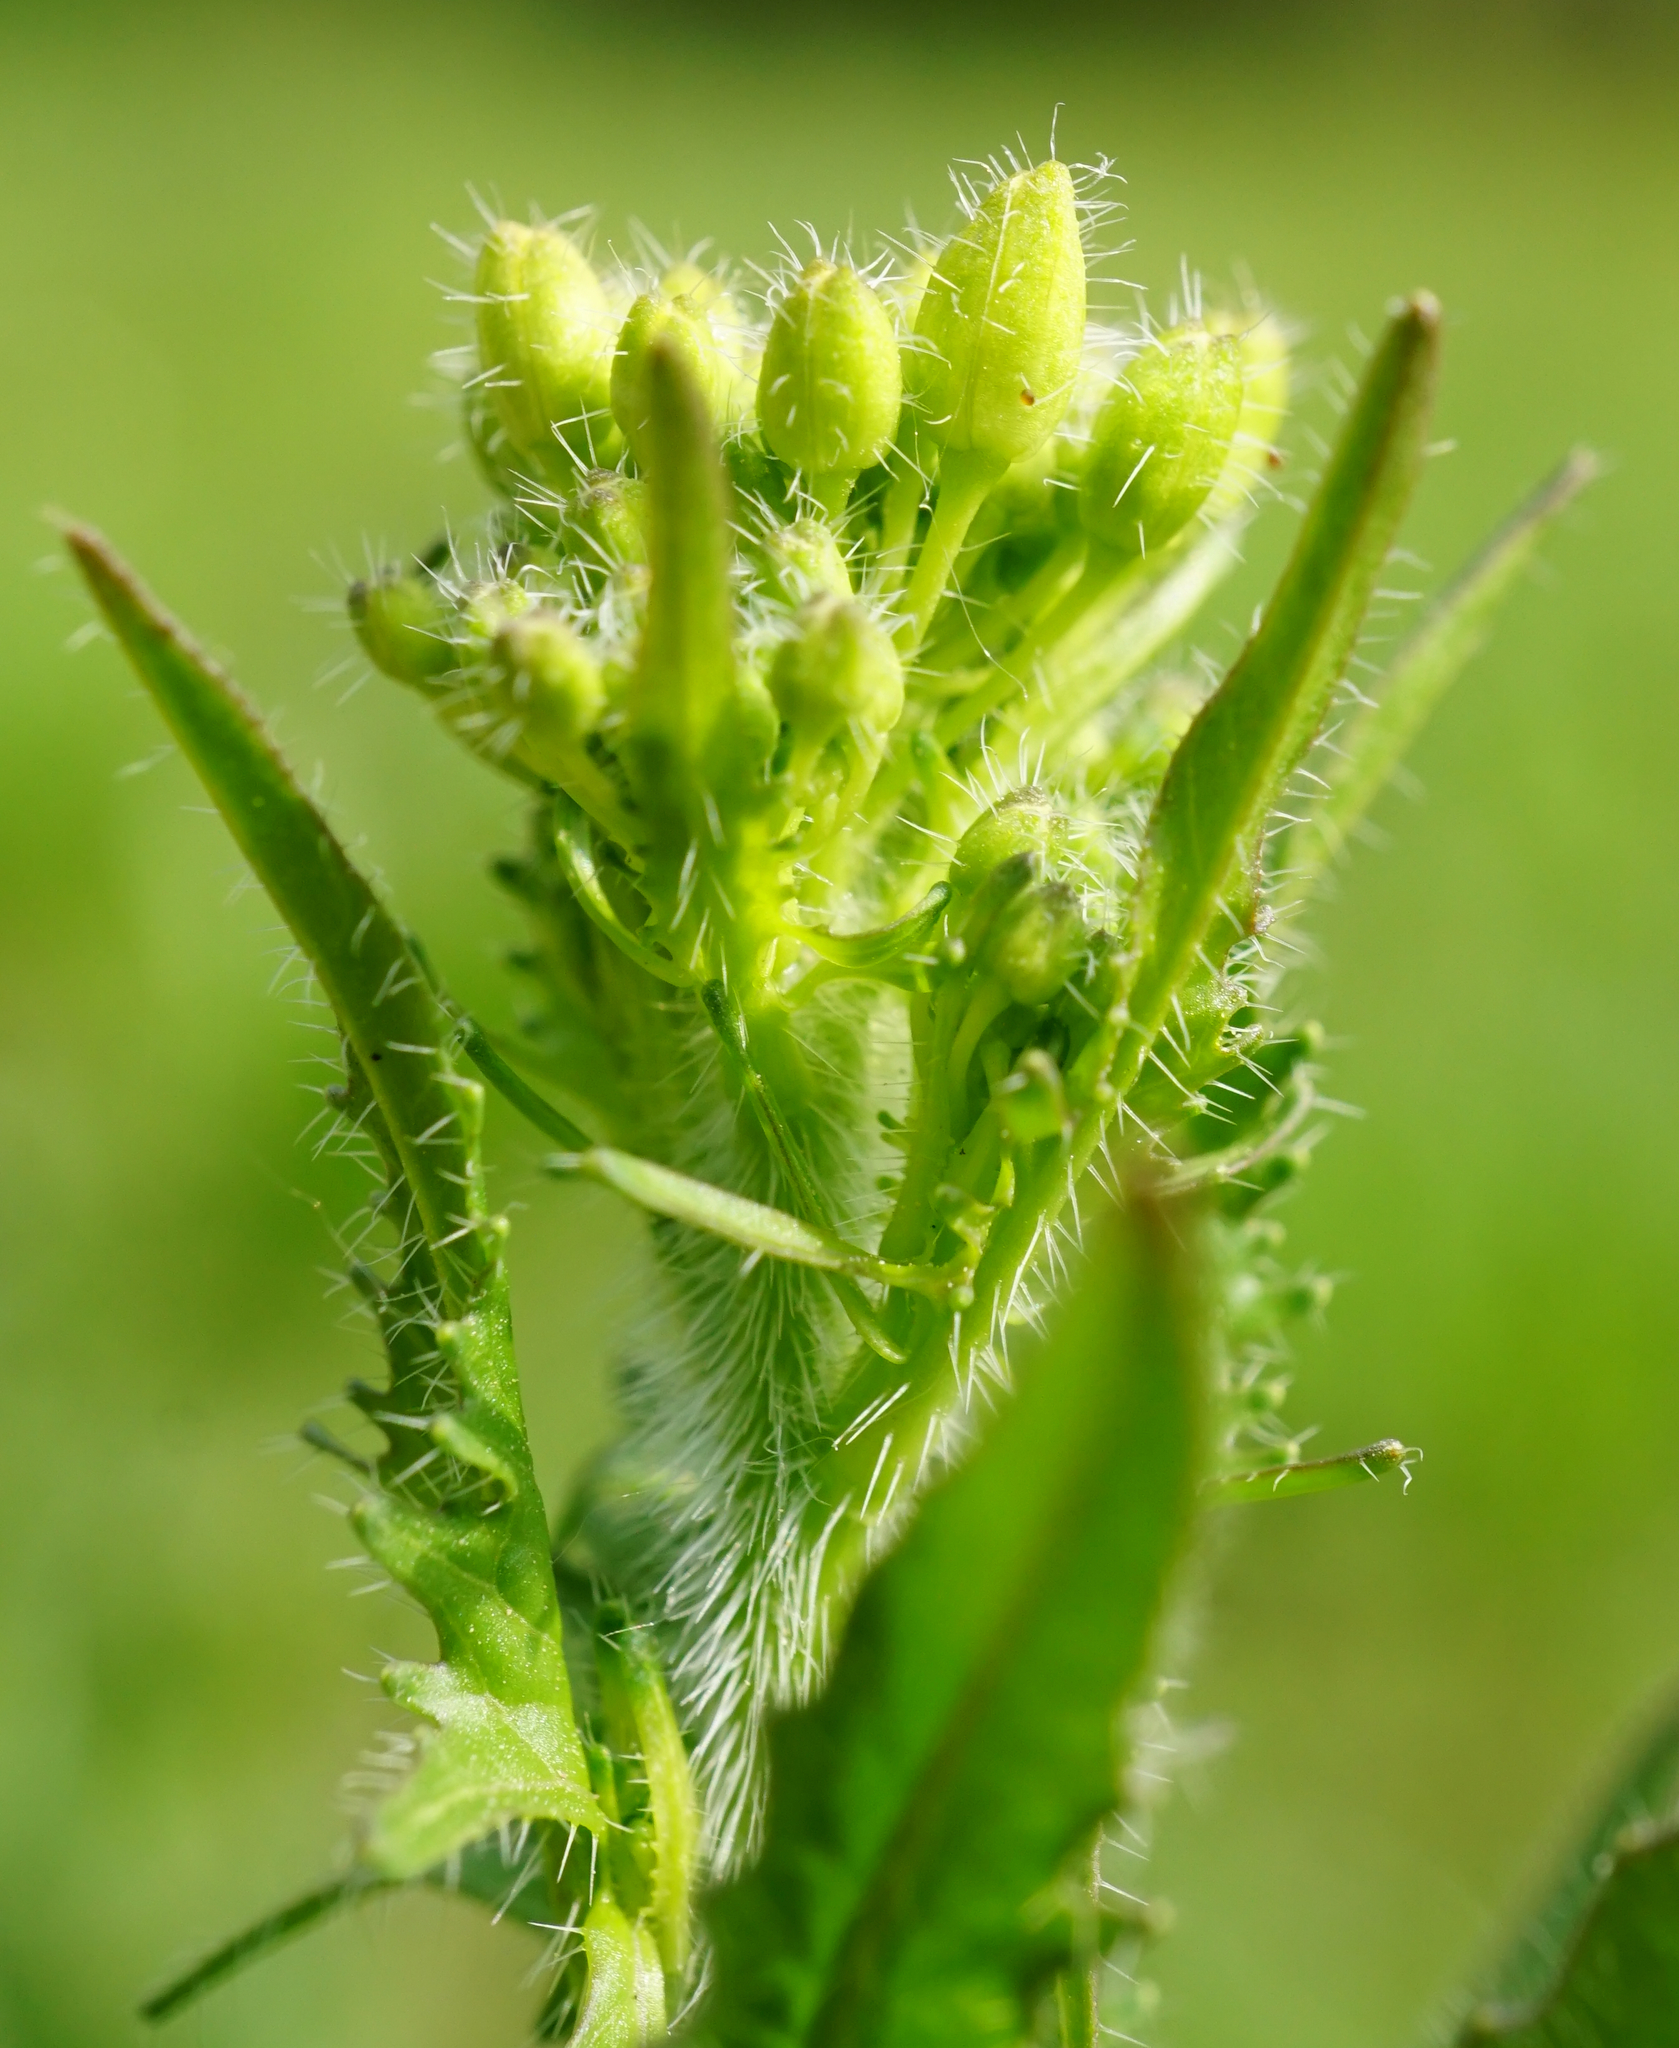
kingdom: Plantae
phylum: Tracheophyta
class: Magnoliopsida
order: Brassicales
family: Brassicaceae
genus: Sisymbrium
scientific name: Sisymbrium loeselii
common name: False london-rocket
